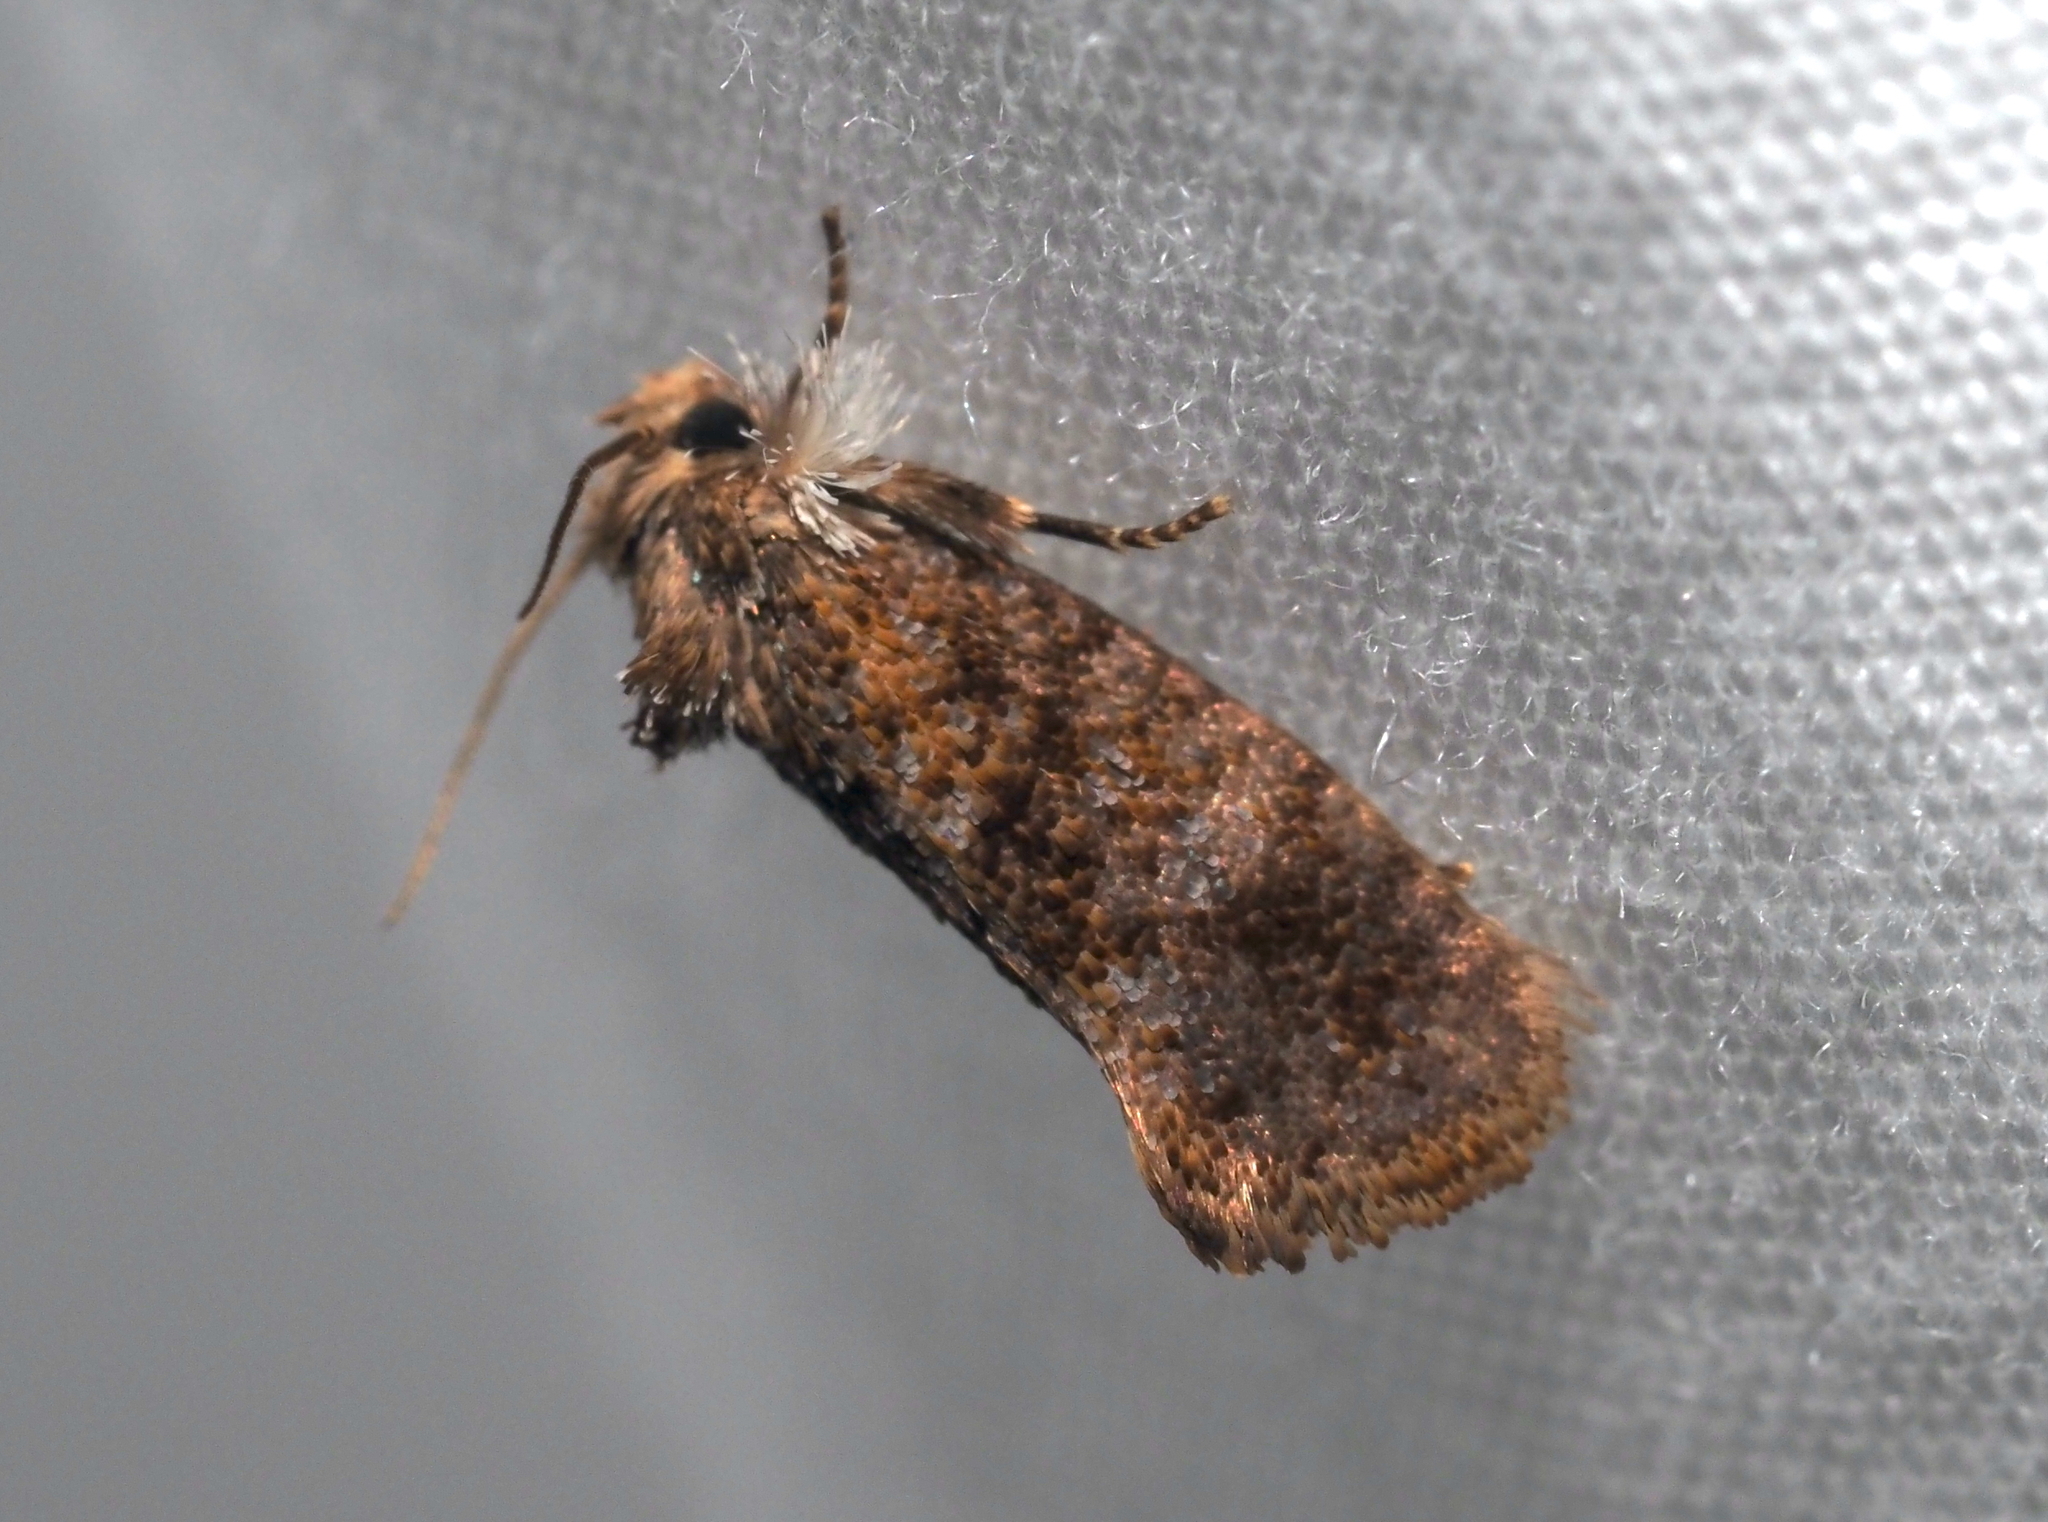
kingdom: Animalia
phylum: Arthropoda
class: Insecta
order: Lepidoptera
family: Tineidae
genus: Acrolophus
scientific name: Acrolophus panamae
